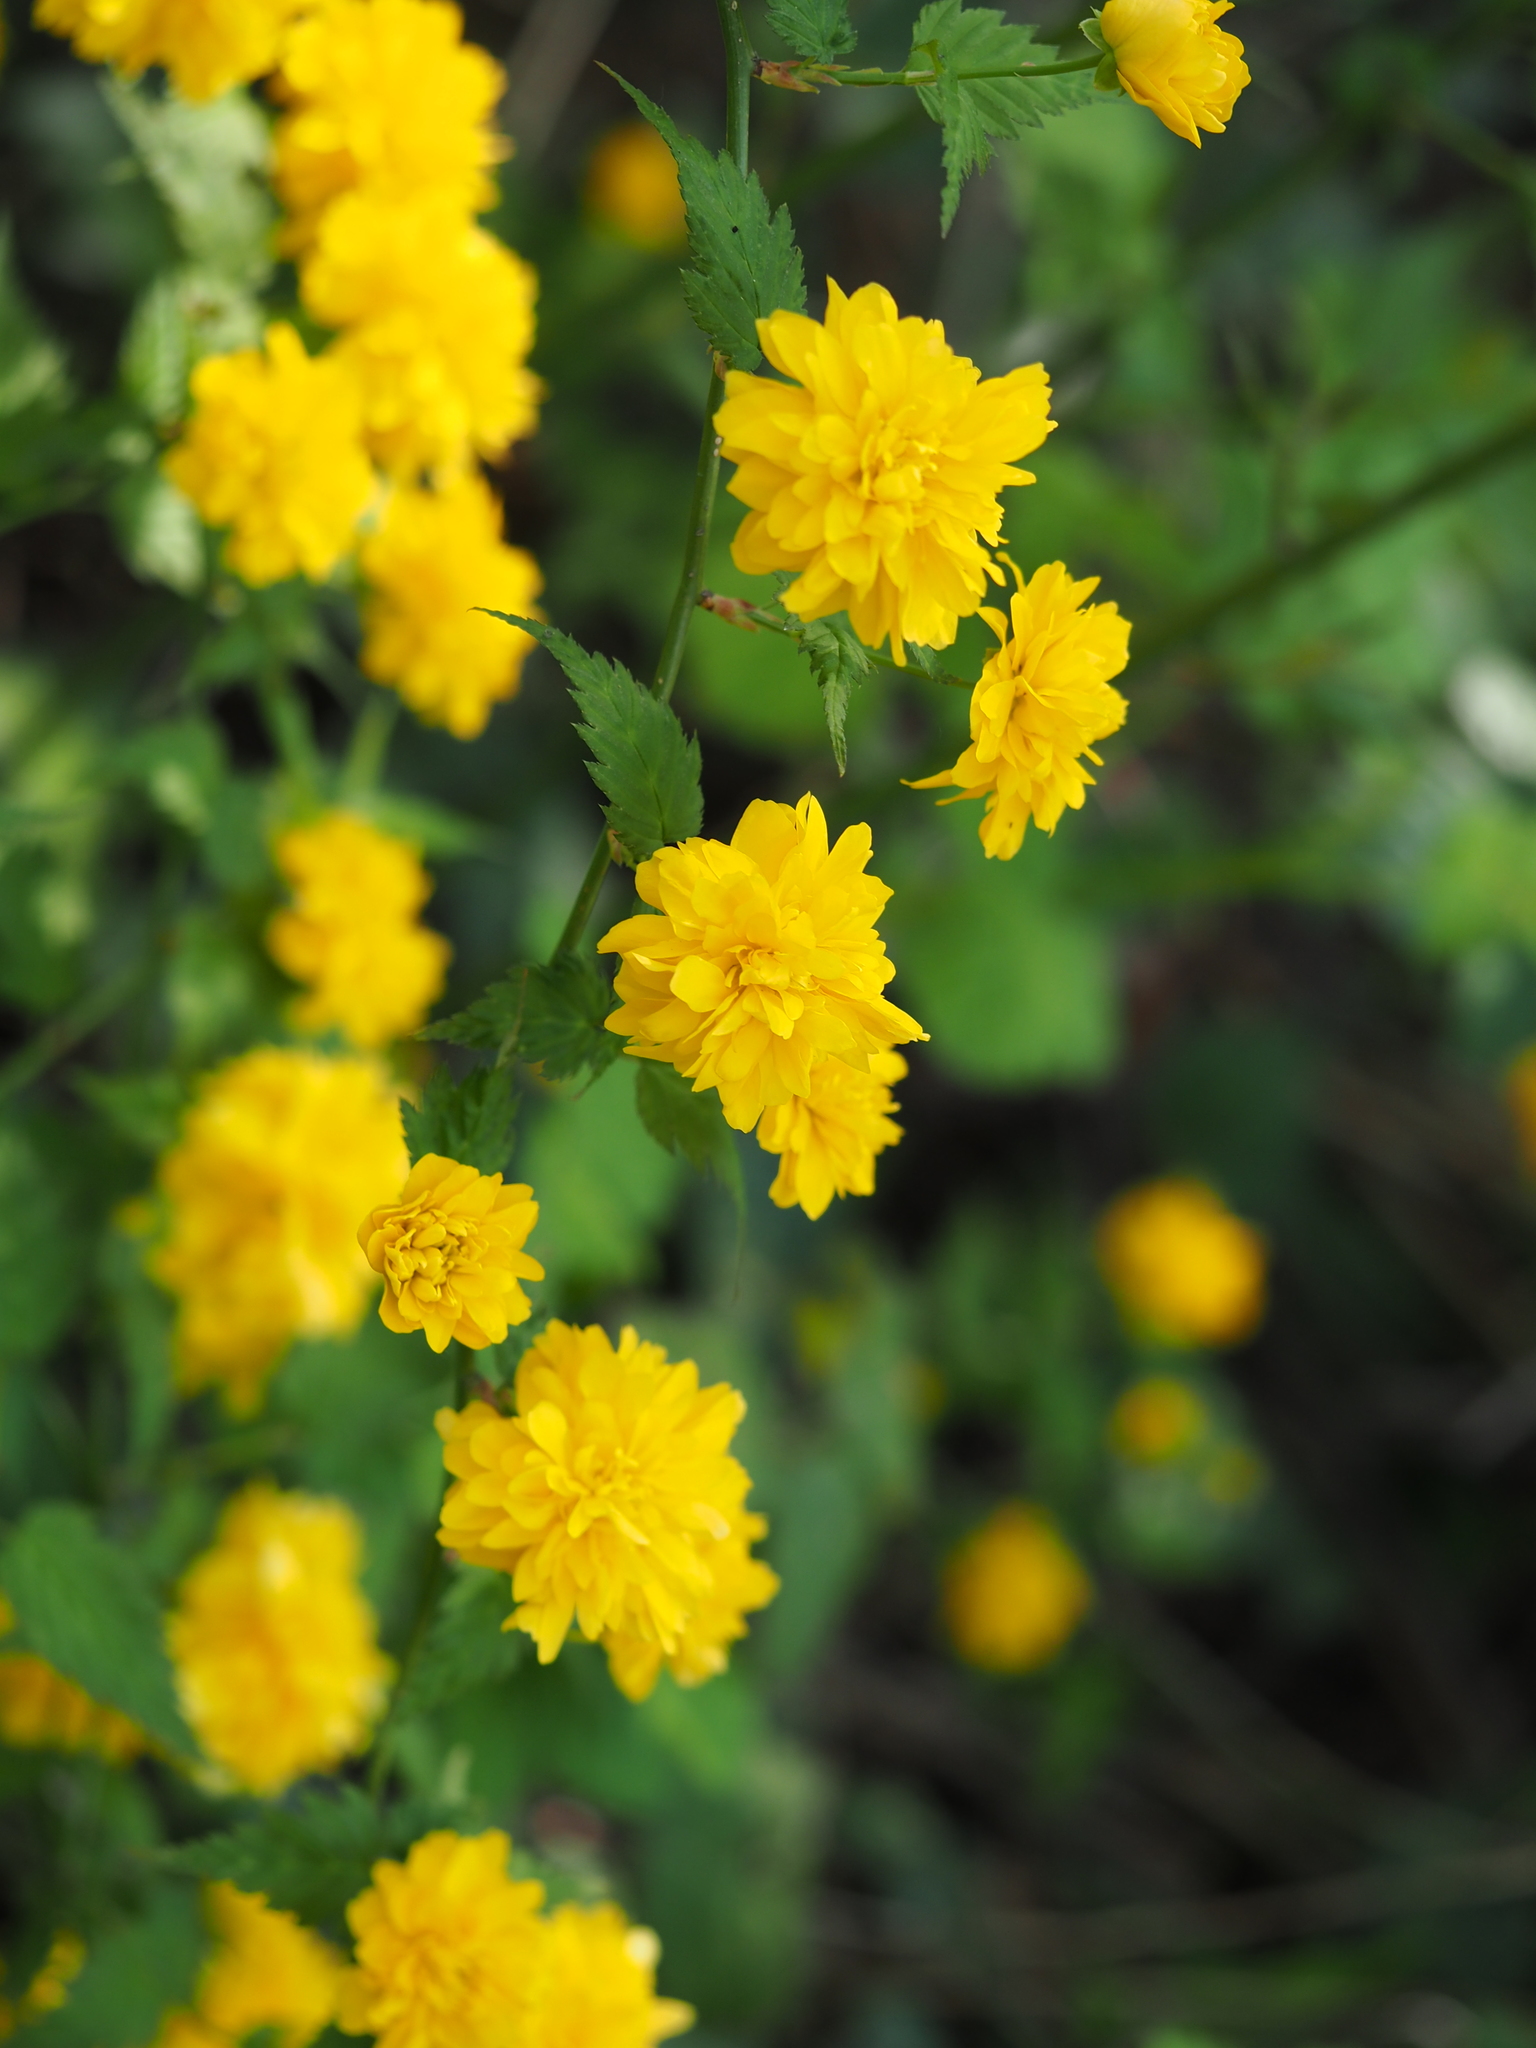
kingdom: Plantae
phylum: Tracheophyta
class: Magnoliopsida
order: Rosales
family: Rosaceae
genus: Kerria
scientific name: Kerria japonica
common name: Japanese kerria
